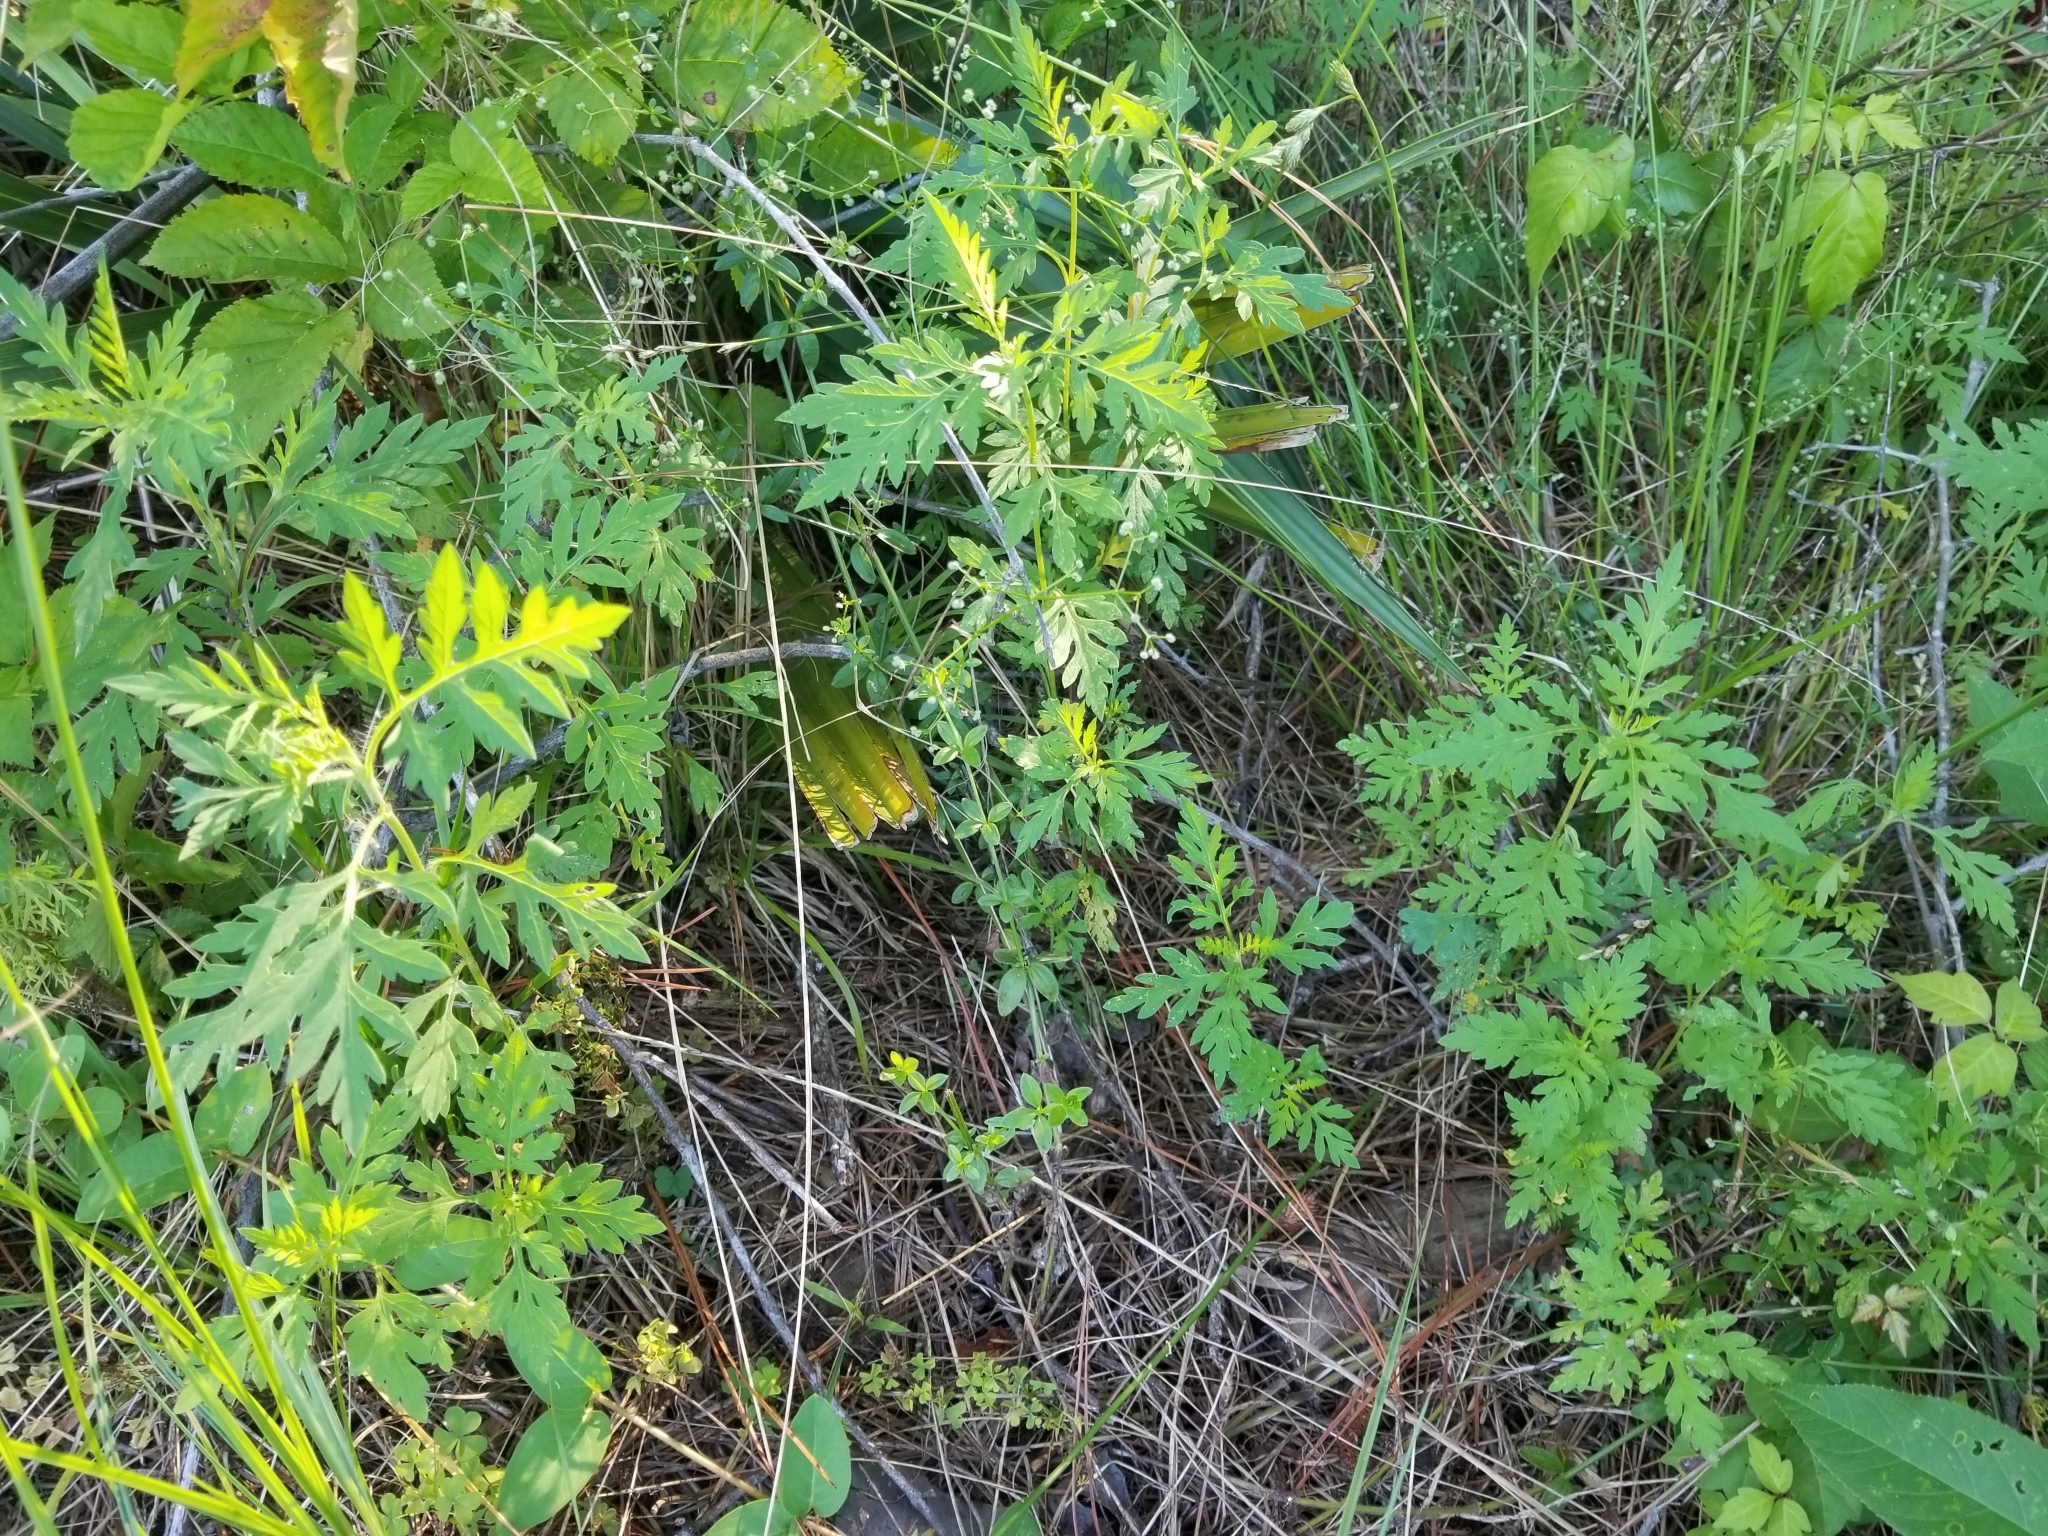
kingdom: Plantae
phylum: Tracheophyta
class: Magnoliopsida
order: Asterales
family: Asteraceae
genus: Ambrosia
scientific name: Ambrosia artemisiifolia
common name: Annual ragweed
